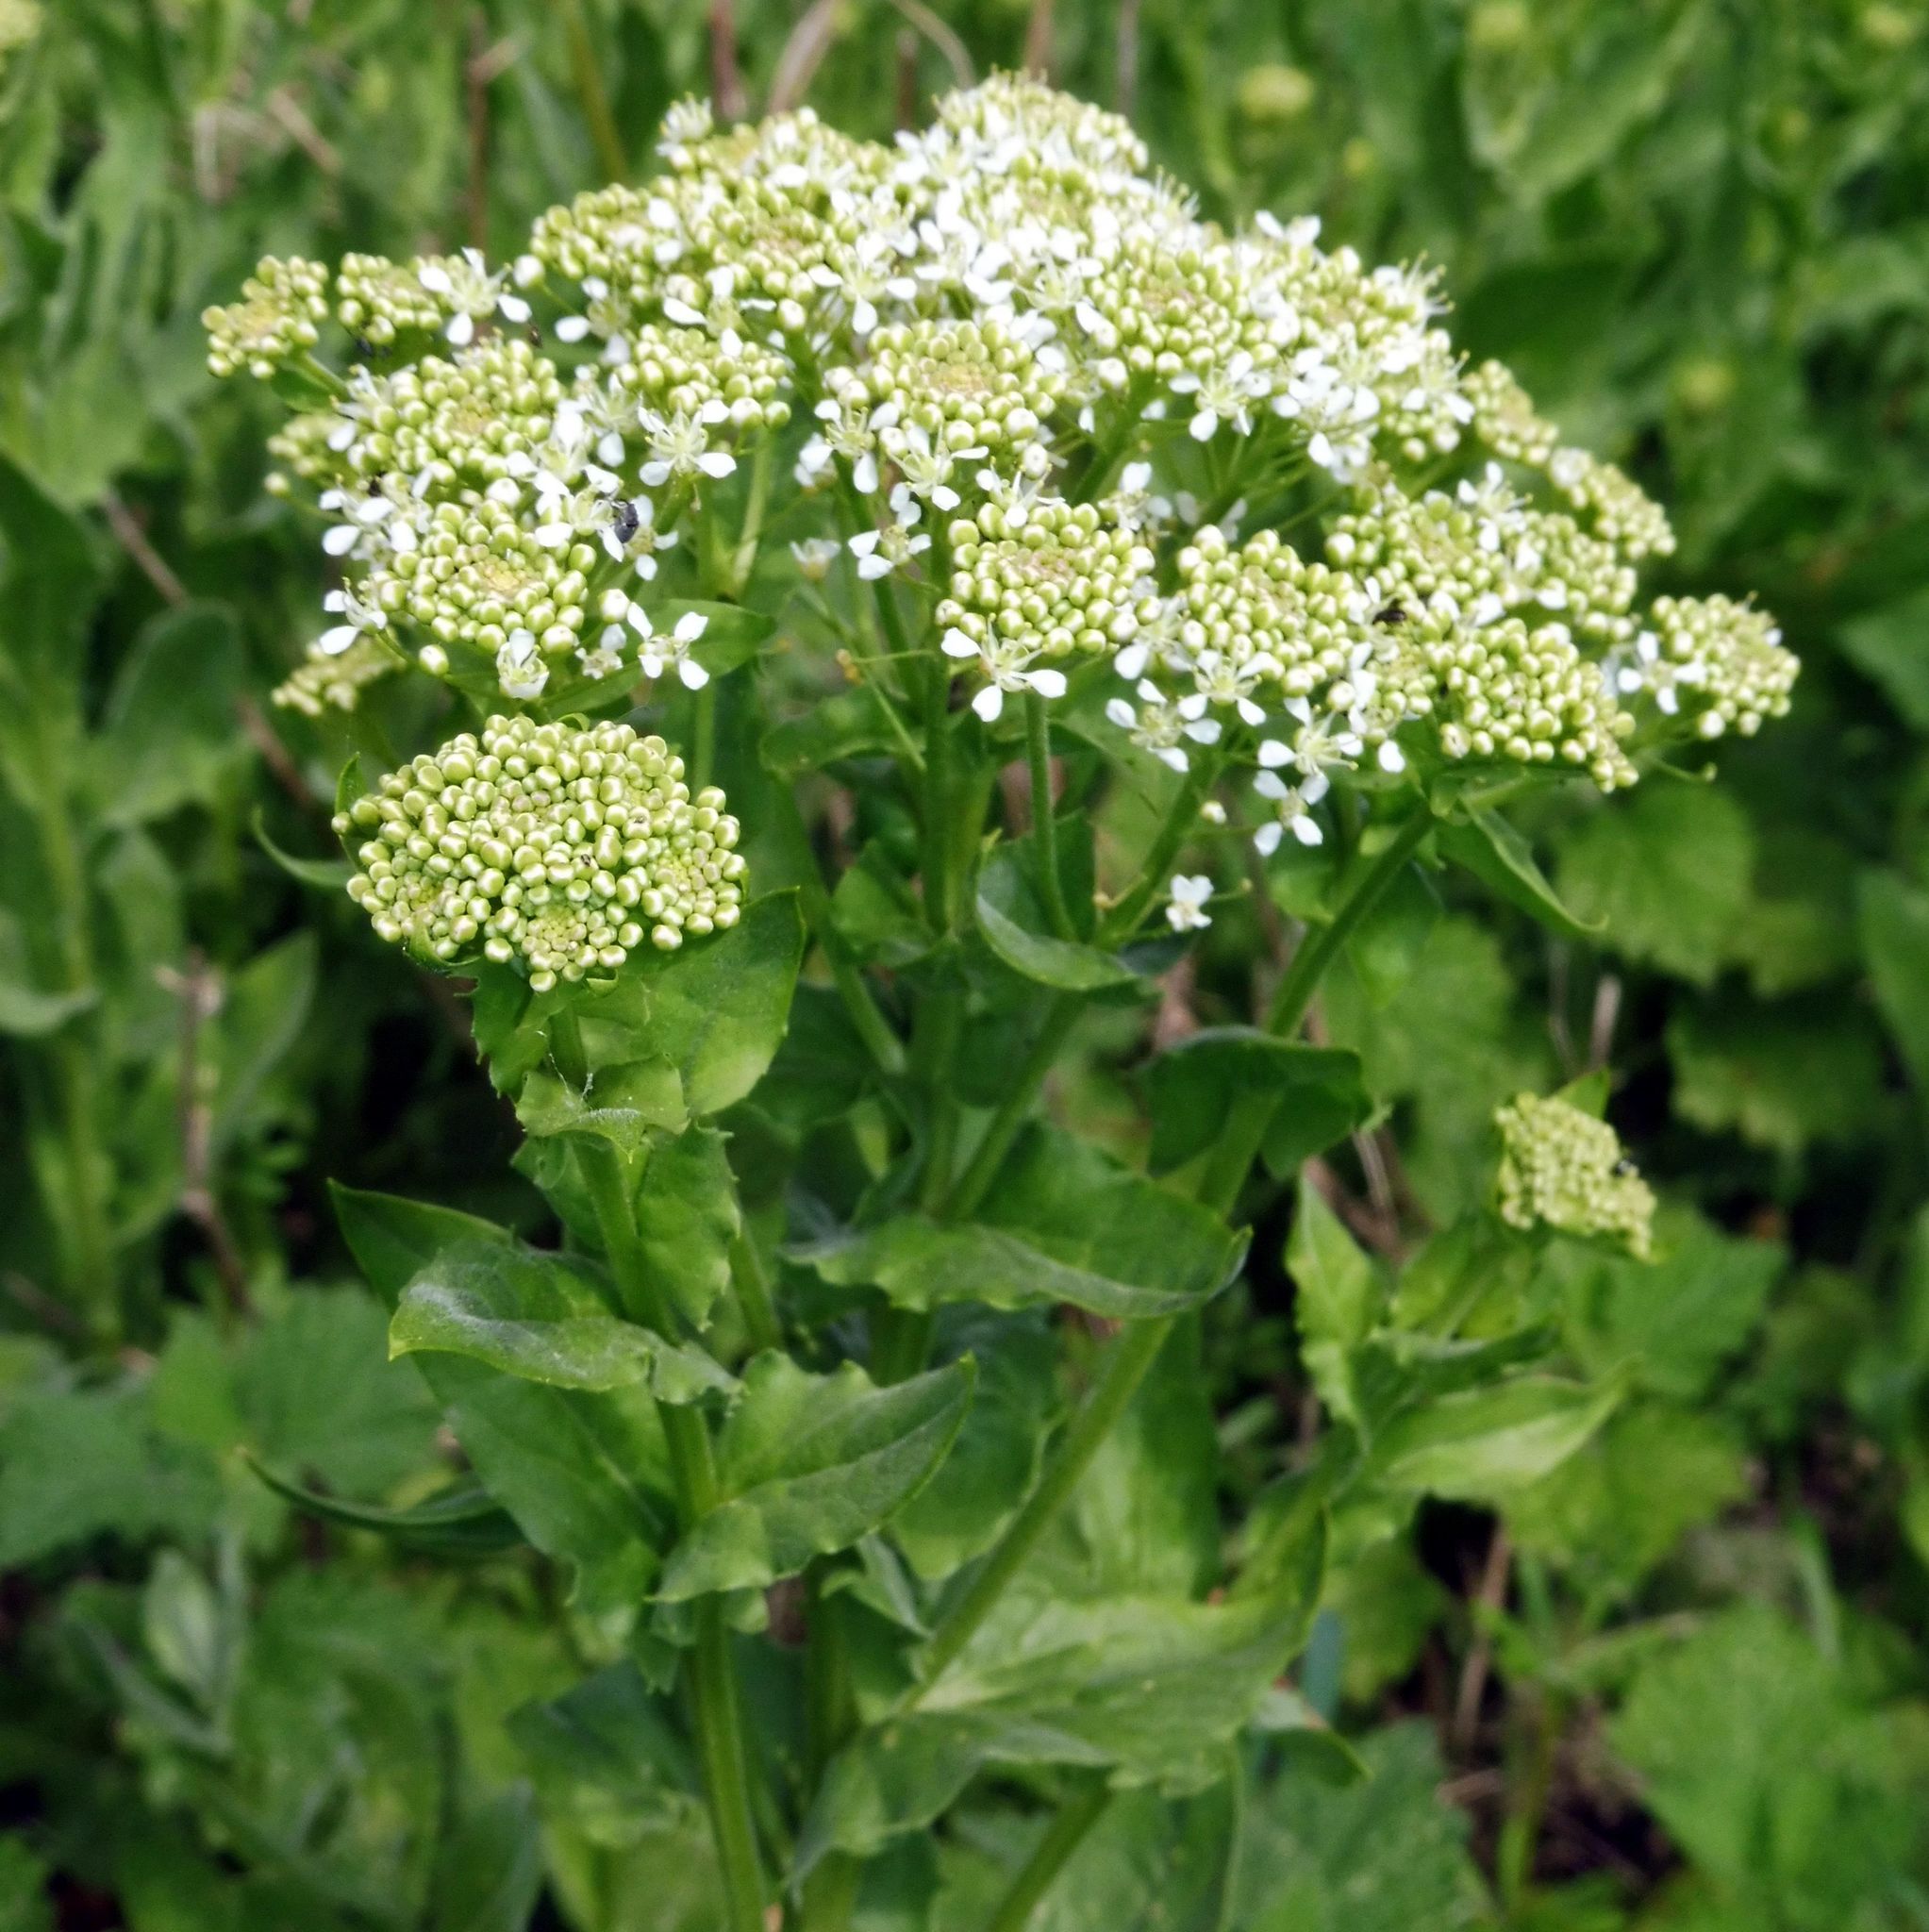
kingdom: Plantae
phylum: Tracheophyta
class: Magnoliopsida
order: Brassicales
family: Brassicaceae
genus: Lepidium
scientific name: Lepidium draba
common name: Hoary cress
